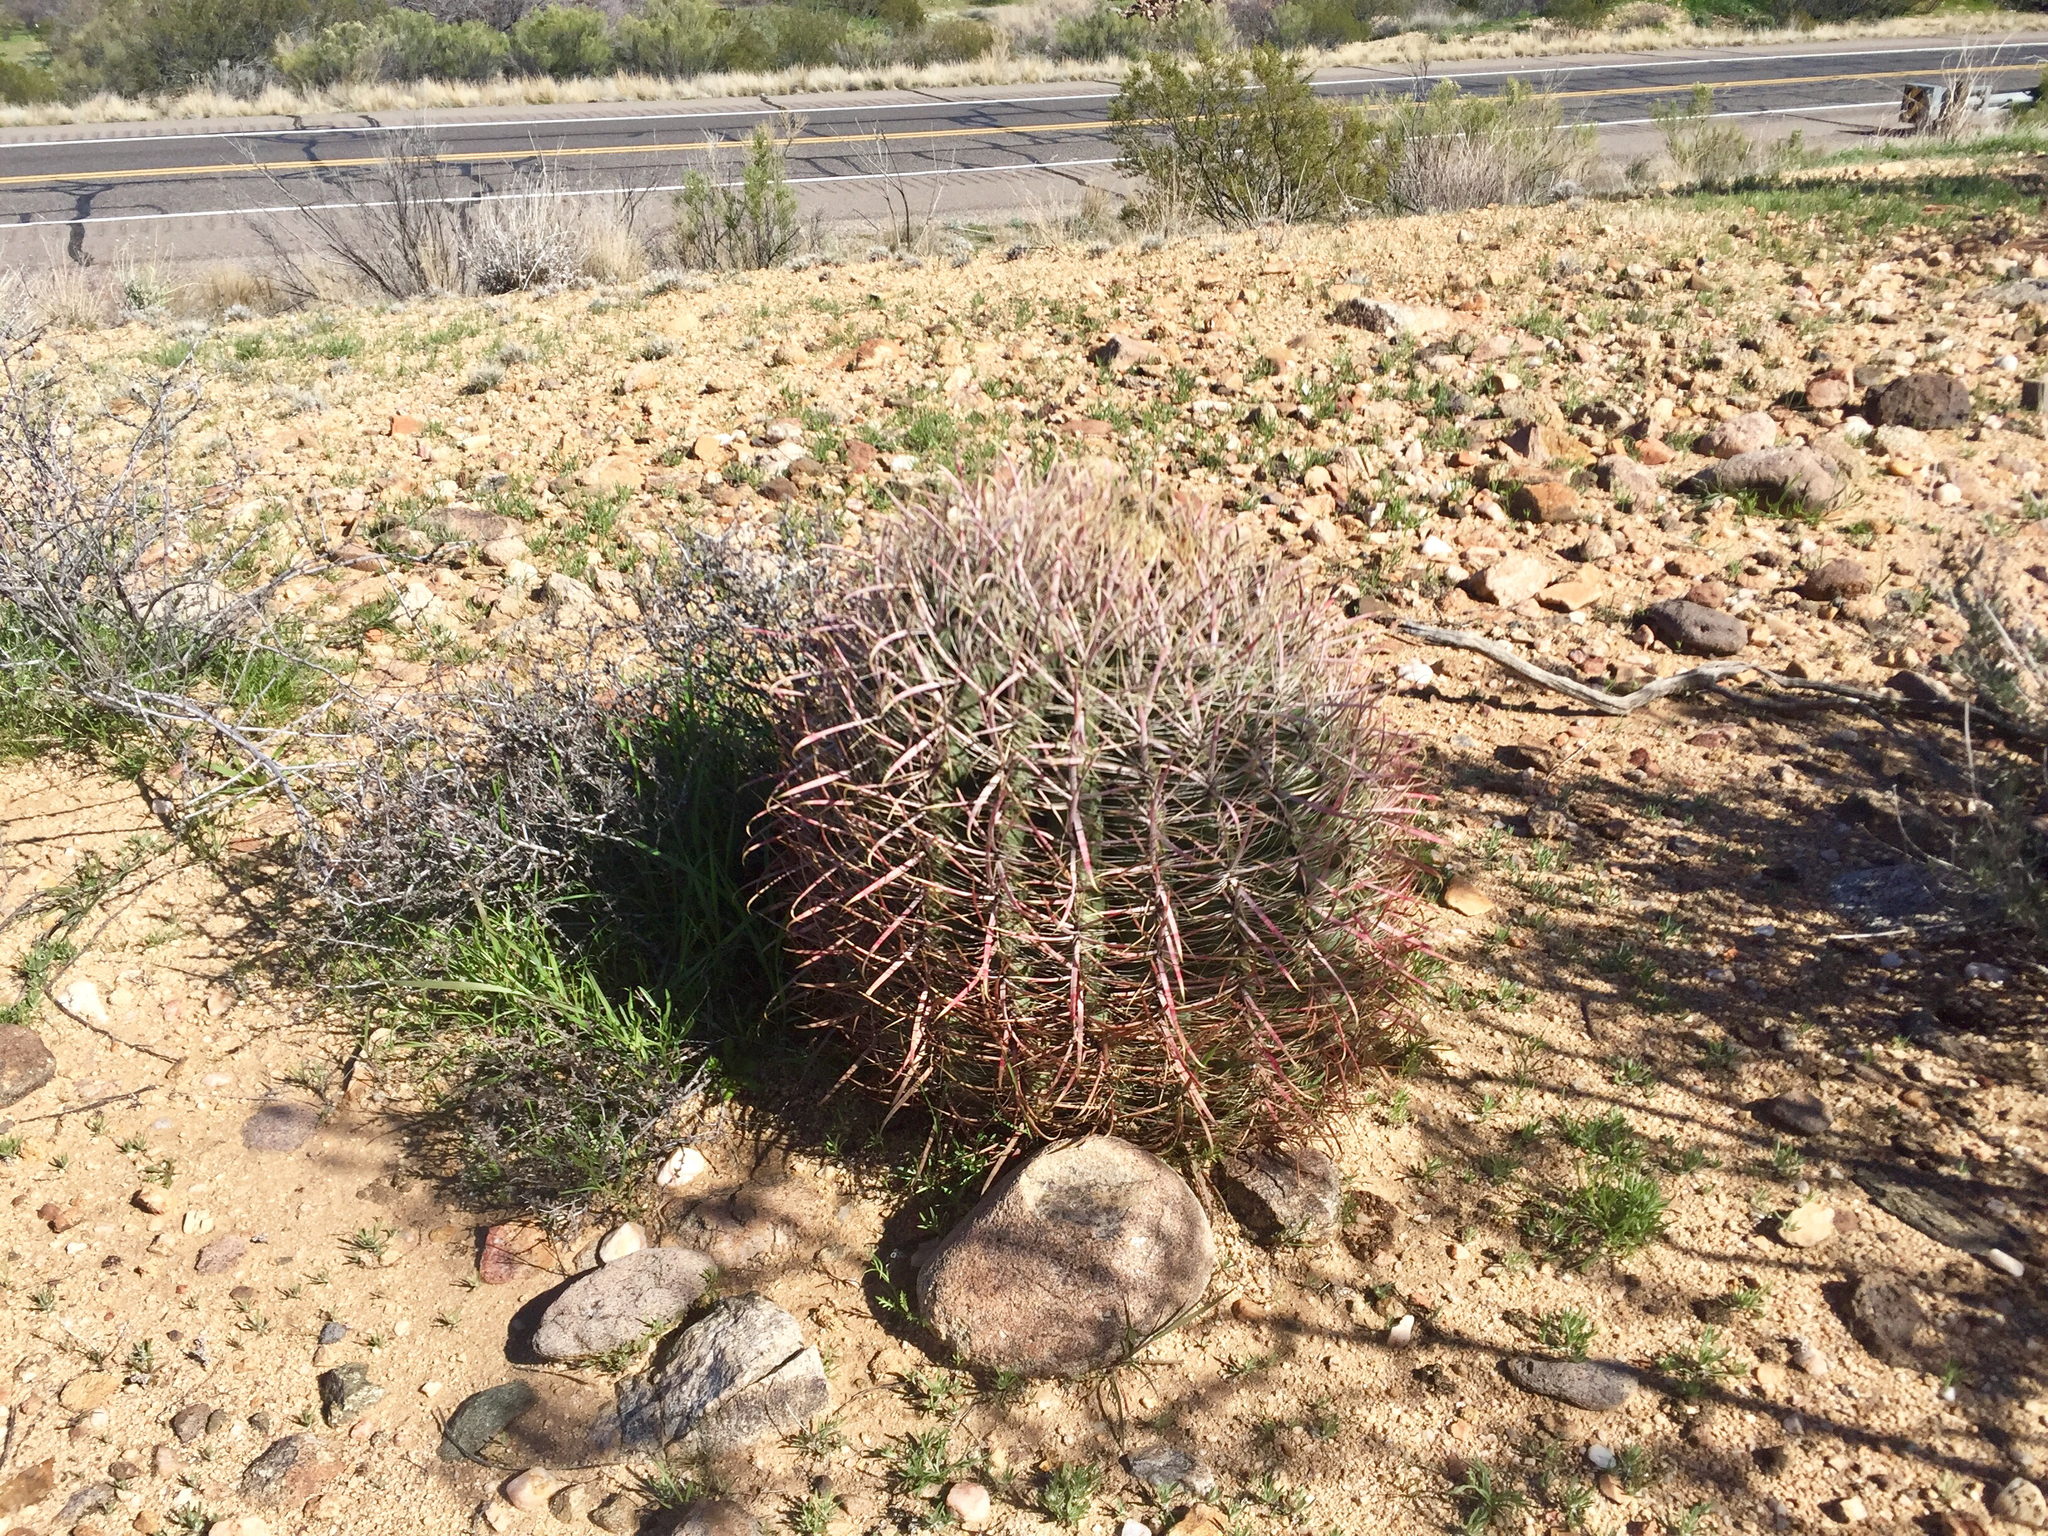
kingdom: Plantae
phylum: Tracheophyta
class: Magnoliopsida
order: Caryophyllales
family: Cactaceae
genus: Ferocactus
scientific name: Ferocactus cylindraceus
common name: California barrel cactus
